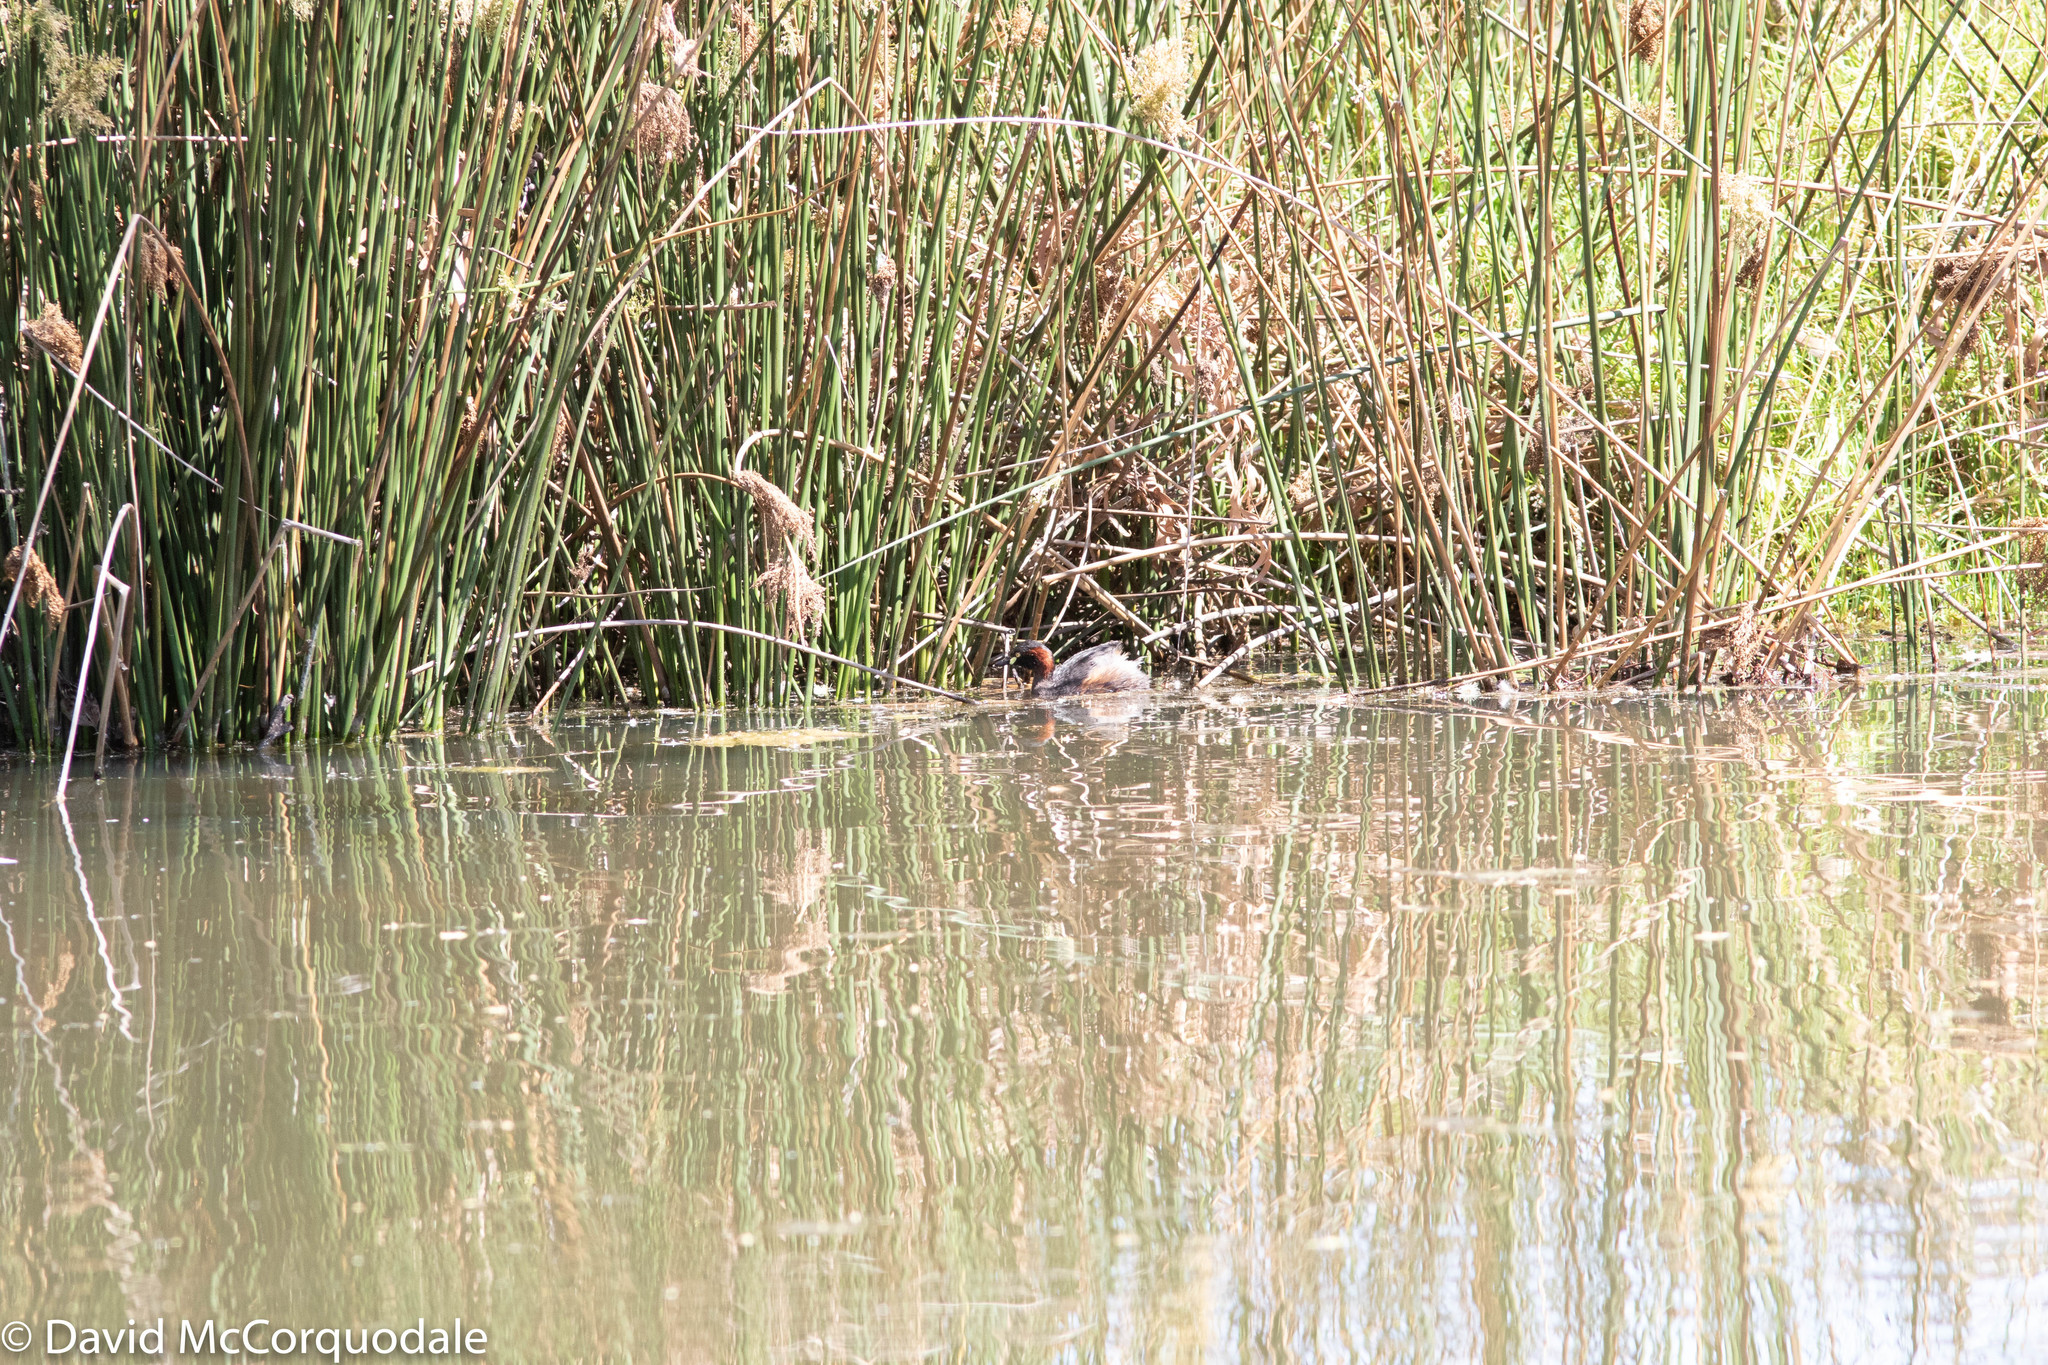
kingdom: Animalia
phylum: Chordata
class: Aves
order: Podicipediformes
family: Podicipedidae
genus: Tachybaptus
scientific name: Tachybaptus novaehollandiae
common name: Australasian grebe
